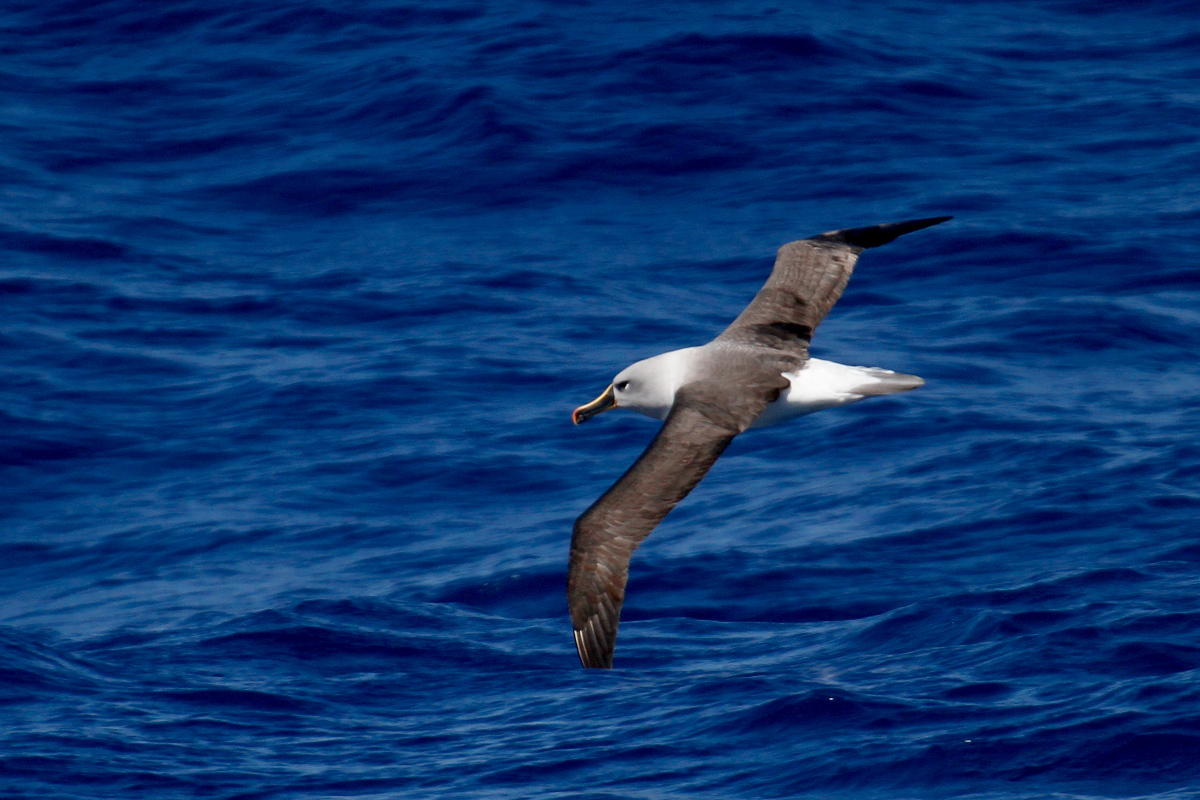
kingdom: Animalia
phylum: Chordata
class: Aves
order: Procellariiformes
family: Diomedeidae
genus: Thalassarche
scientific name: Thalassarche chrysostoma
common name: Grey-headed albatross
